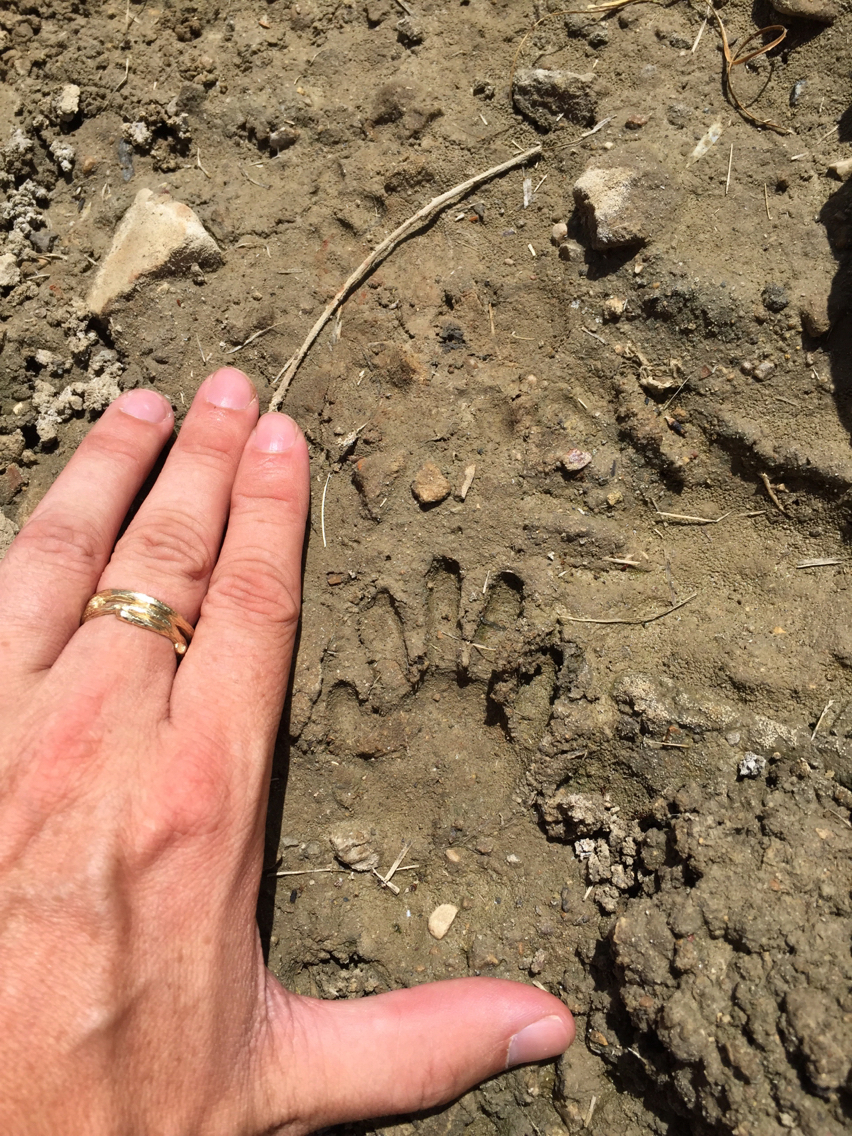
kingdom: Animalia
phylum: Chordata
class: Mammalia
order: Carnivora
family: Procyonidae
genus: Procyon
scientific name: Procyon lotor
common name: Raccoon
